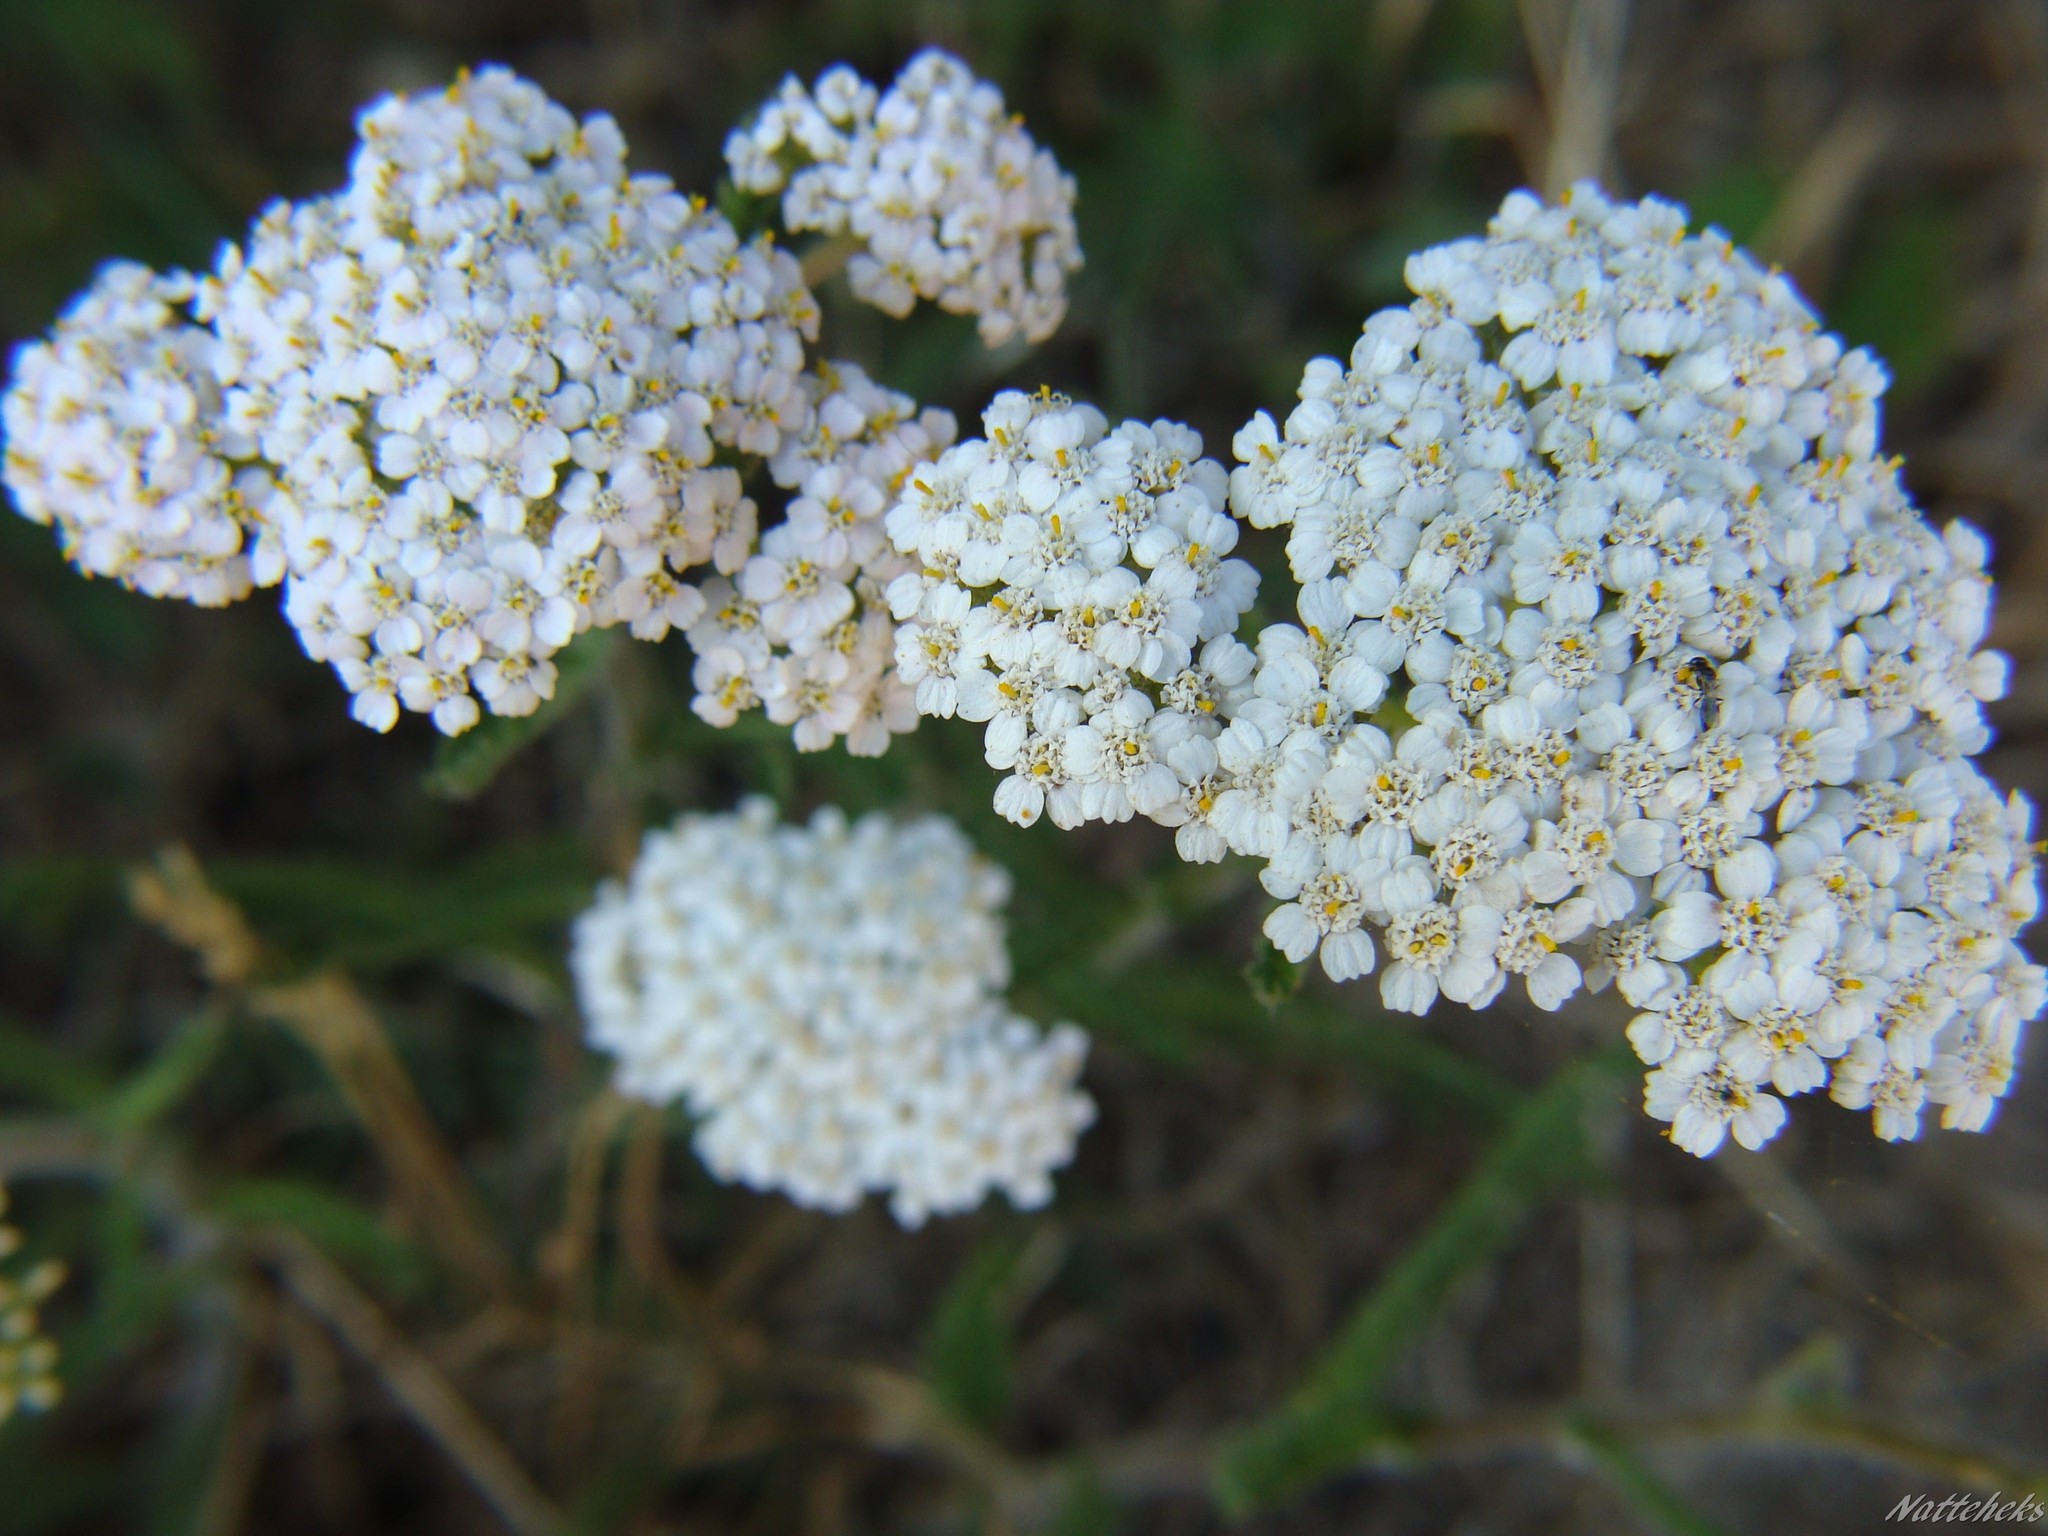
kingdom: Plantae
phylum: Tracheophyta
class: Magnoliopsida
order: Asterales
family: Asteraceae
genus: Achillea
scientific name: Achillea millefolium
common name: Yarrow
